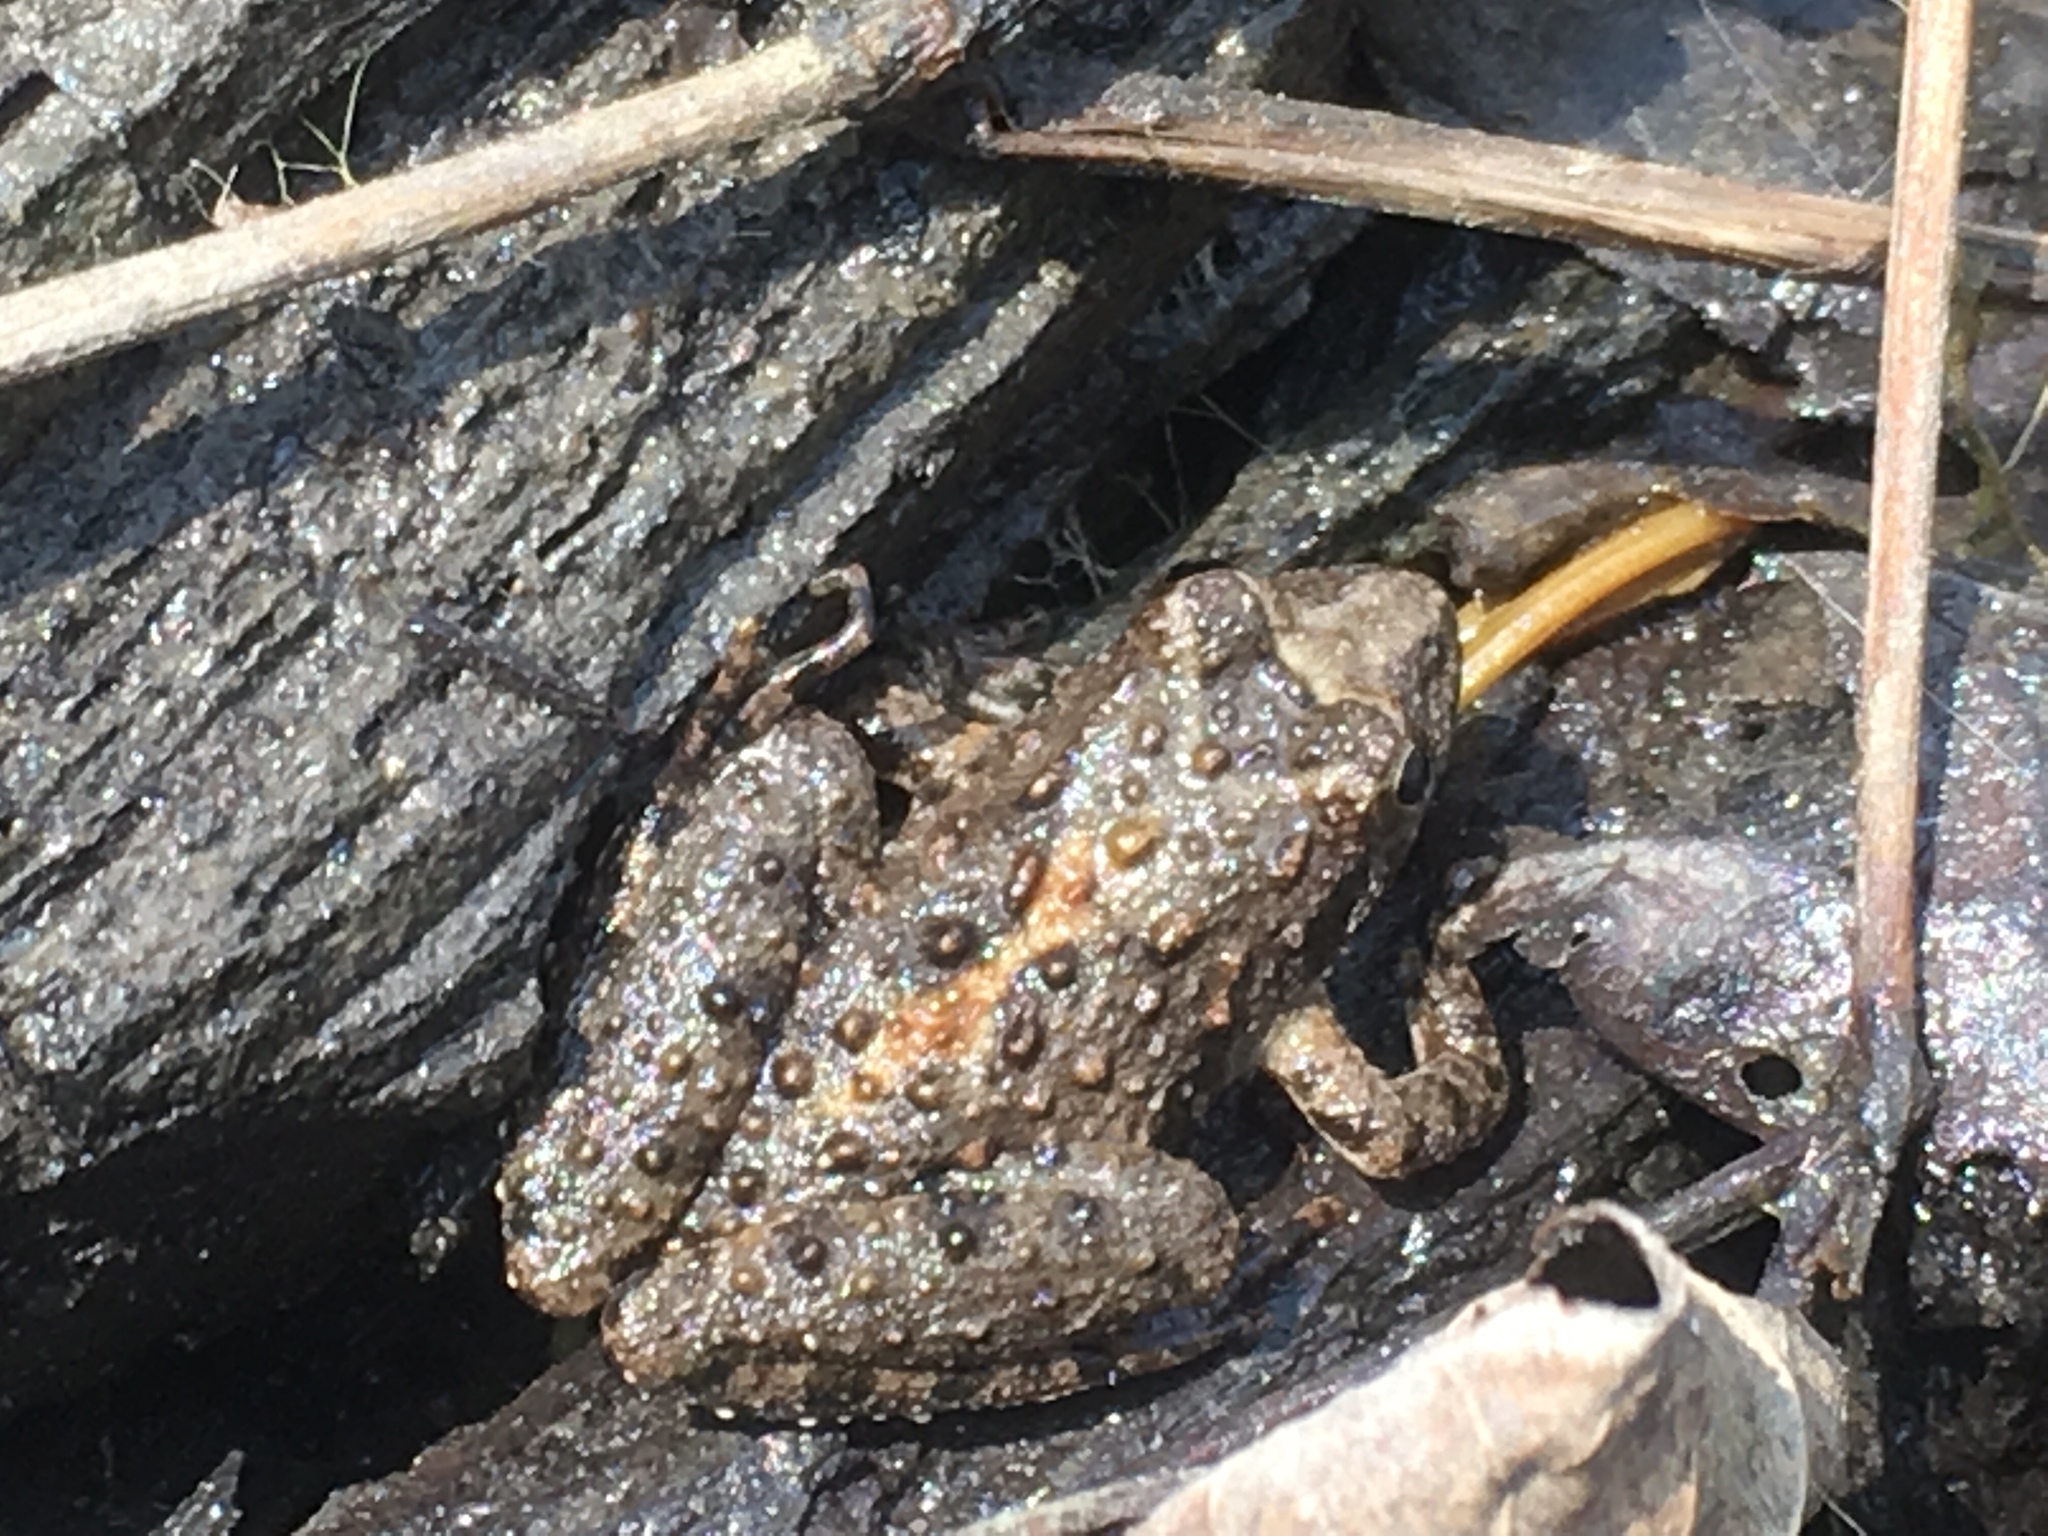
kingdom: Animalia
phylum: Chordata
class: Amphibia
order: Anura
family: Hylidae
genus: Acris
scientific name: Acris blanchardi
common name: Blanchard's cricket frog
